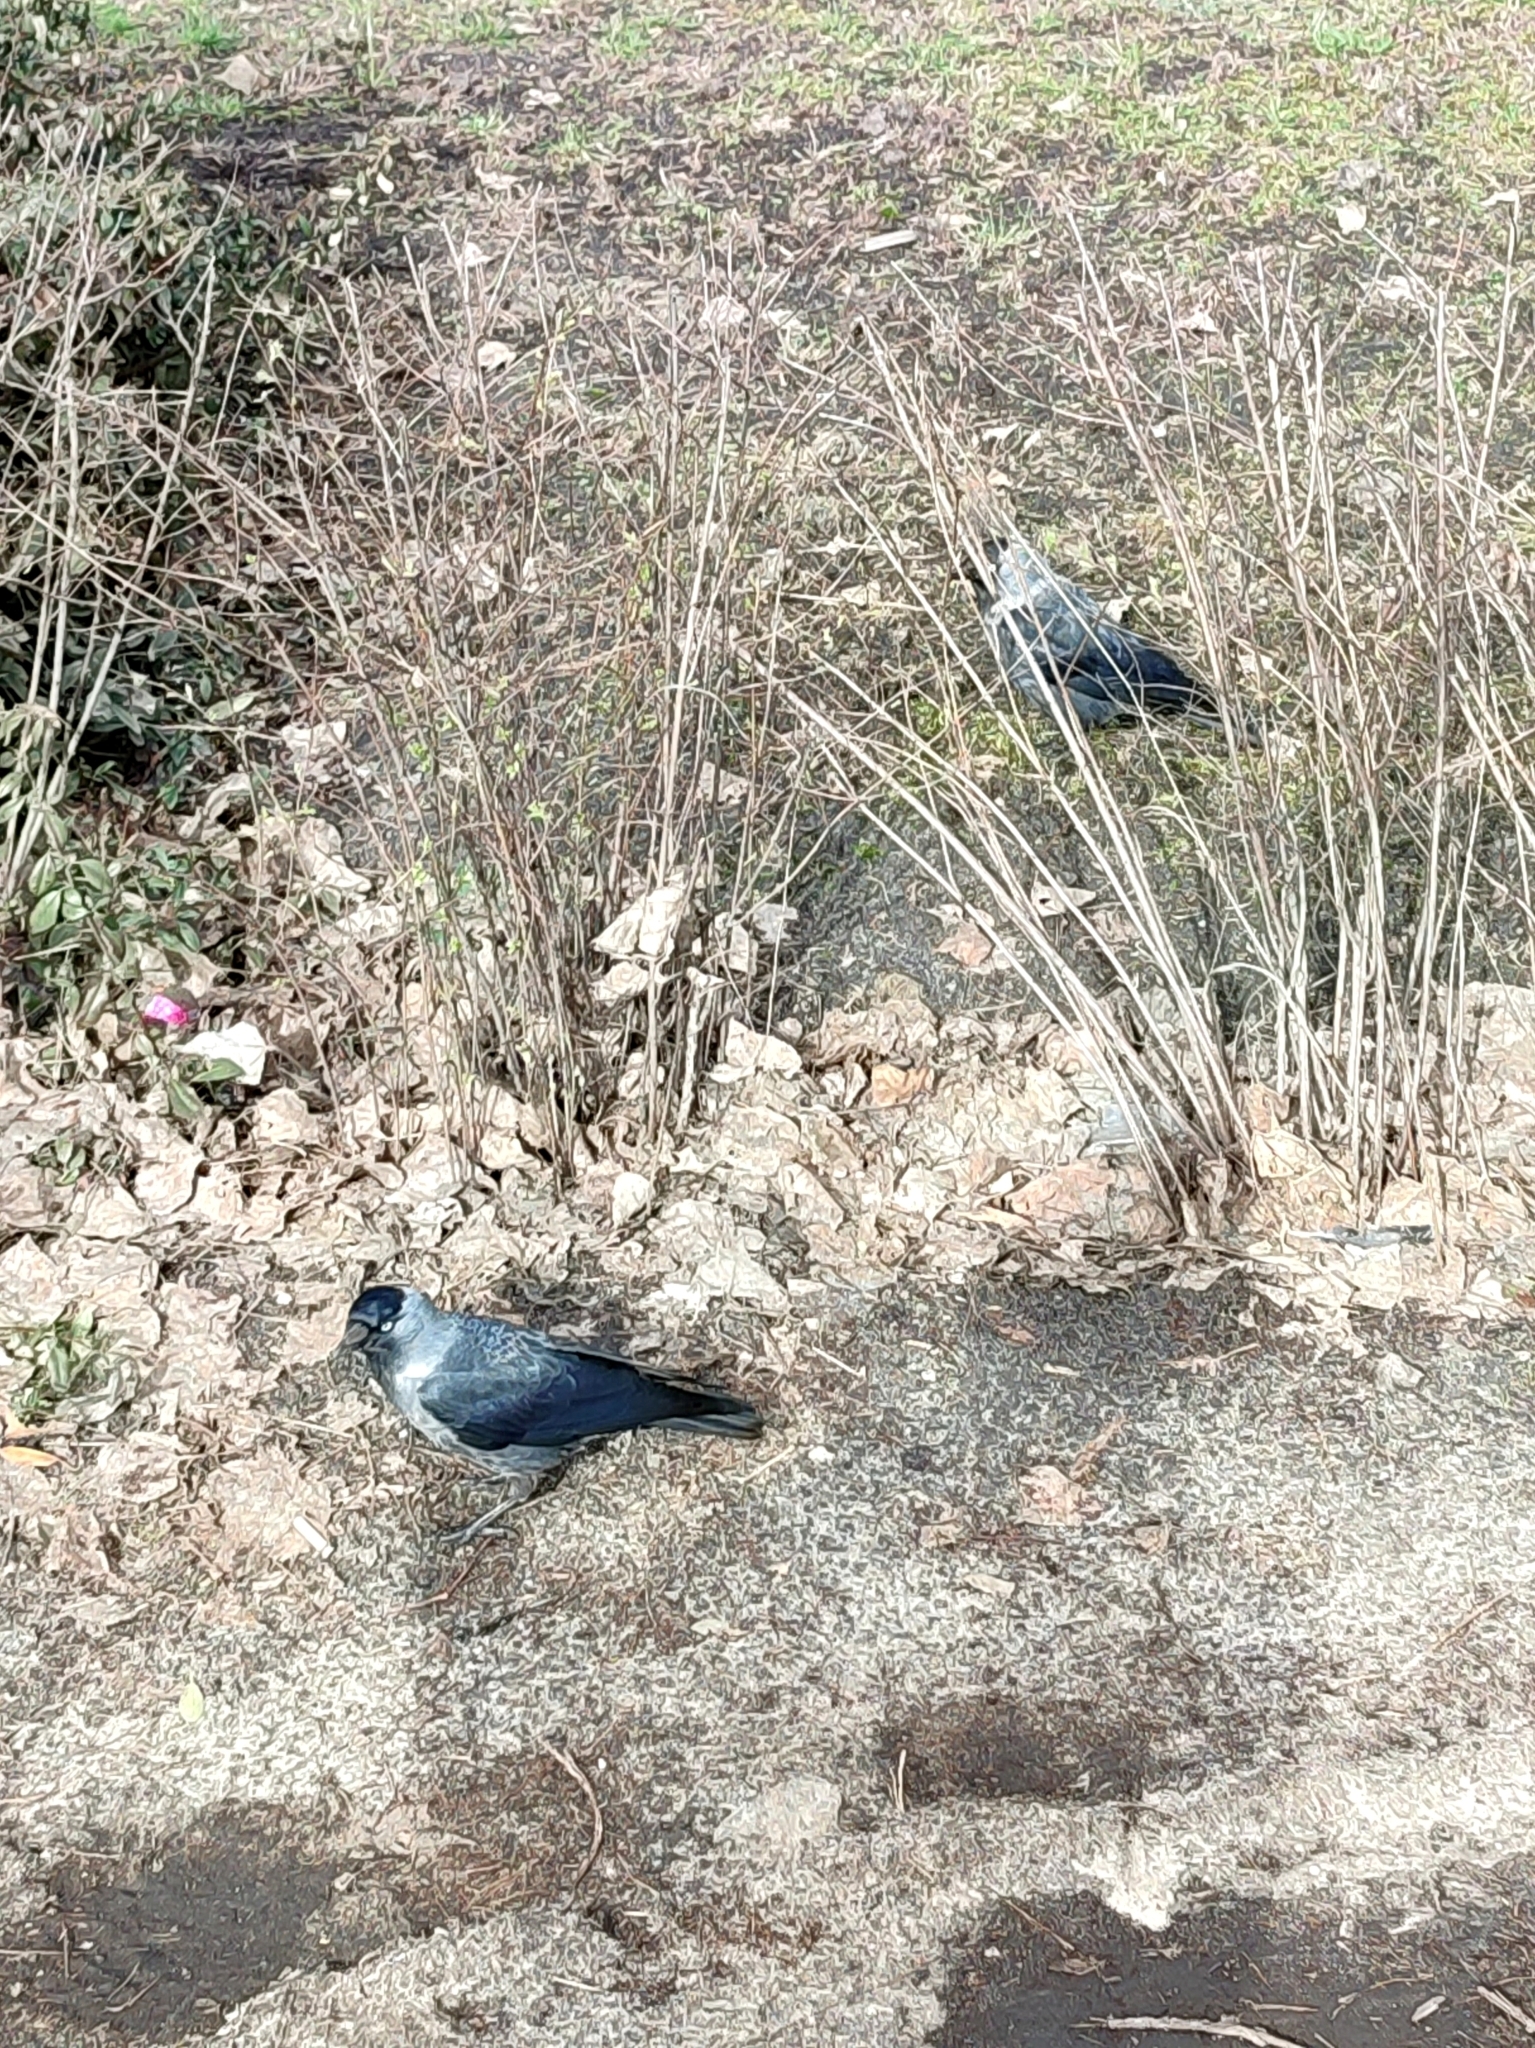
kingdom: Animalia
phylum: Chordata
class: Aves
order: Passeriformes
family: Corvidae
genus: Coloeus
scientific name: Coloeus monedula
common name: Western jackdaw
